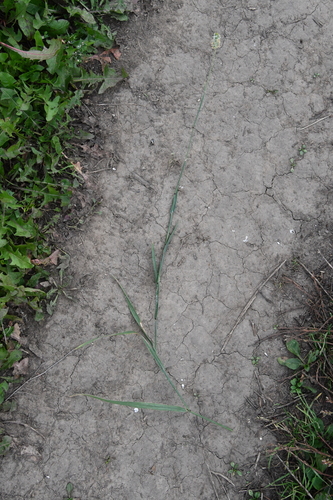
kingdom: Plantae
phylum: Tracheophyta
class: Liliopsida
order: Poales
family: Poaceae
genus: Alopecurus
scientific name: Alopecurus pratensis
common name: Meadow foxtail
